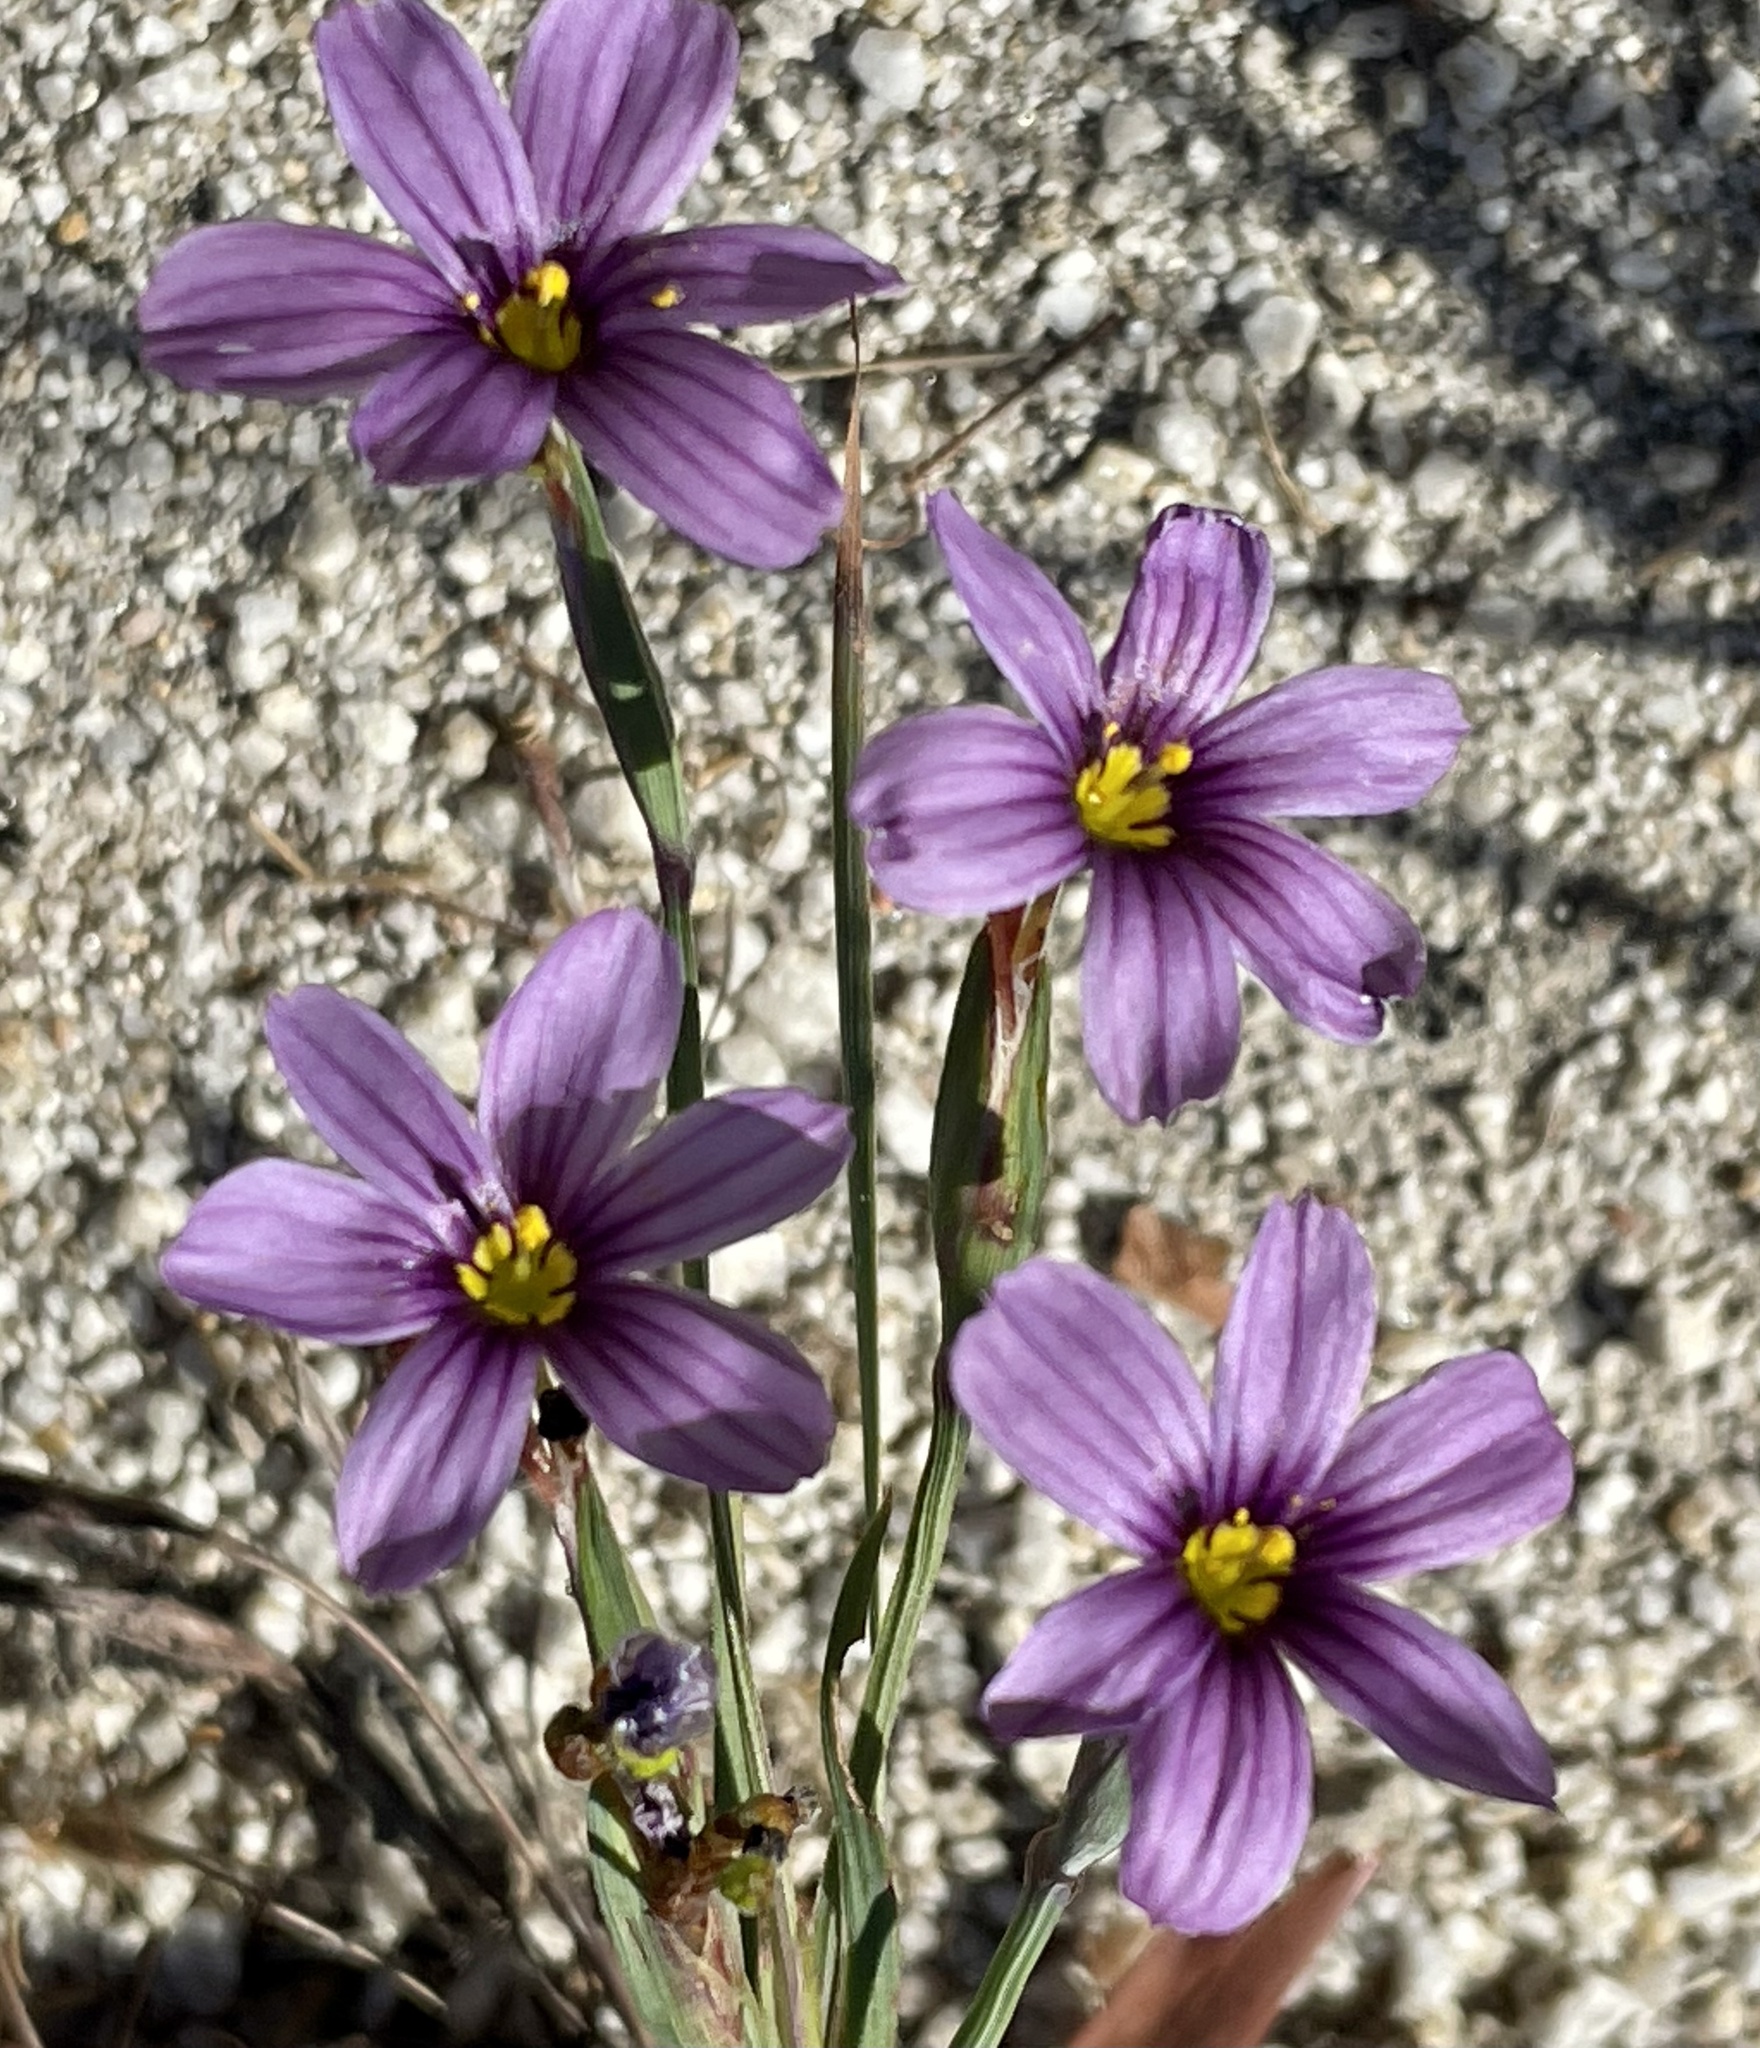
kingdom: Plantae
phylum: Tracheophyta
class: Liliopsida
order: Asparagales
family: Iridaceae
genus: Sisyrinchium
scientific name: Sisyrinchium bellum
